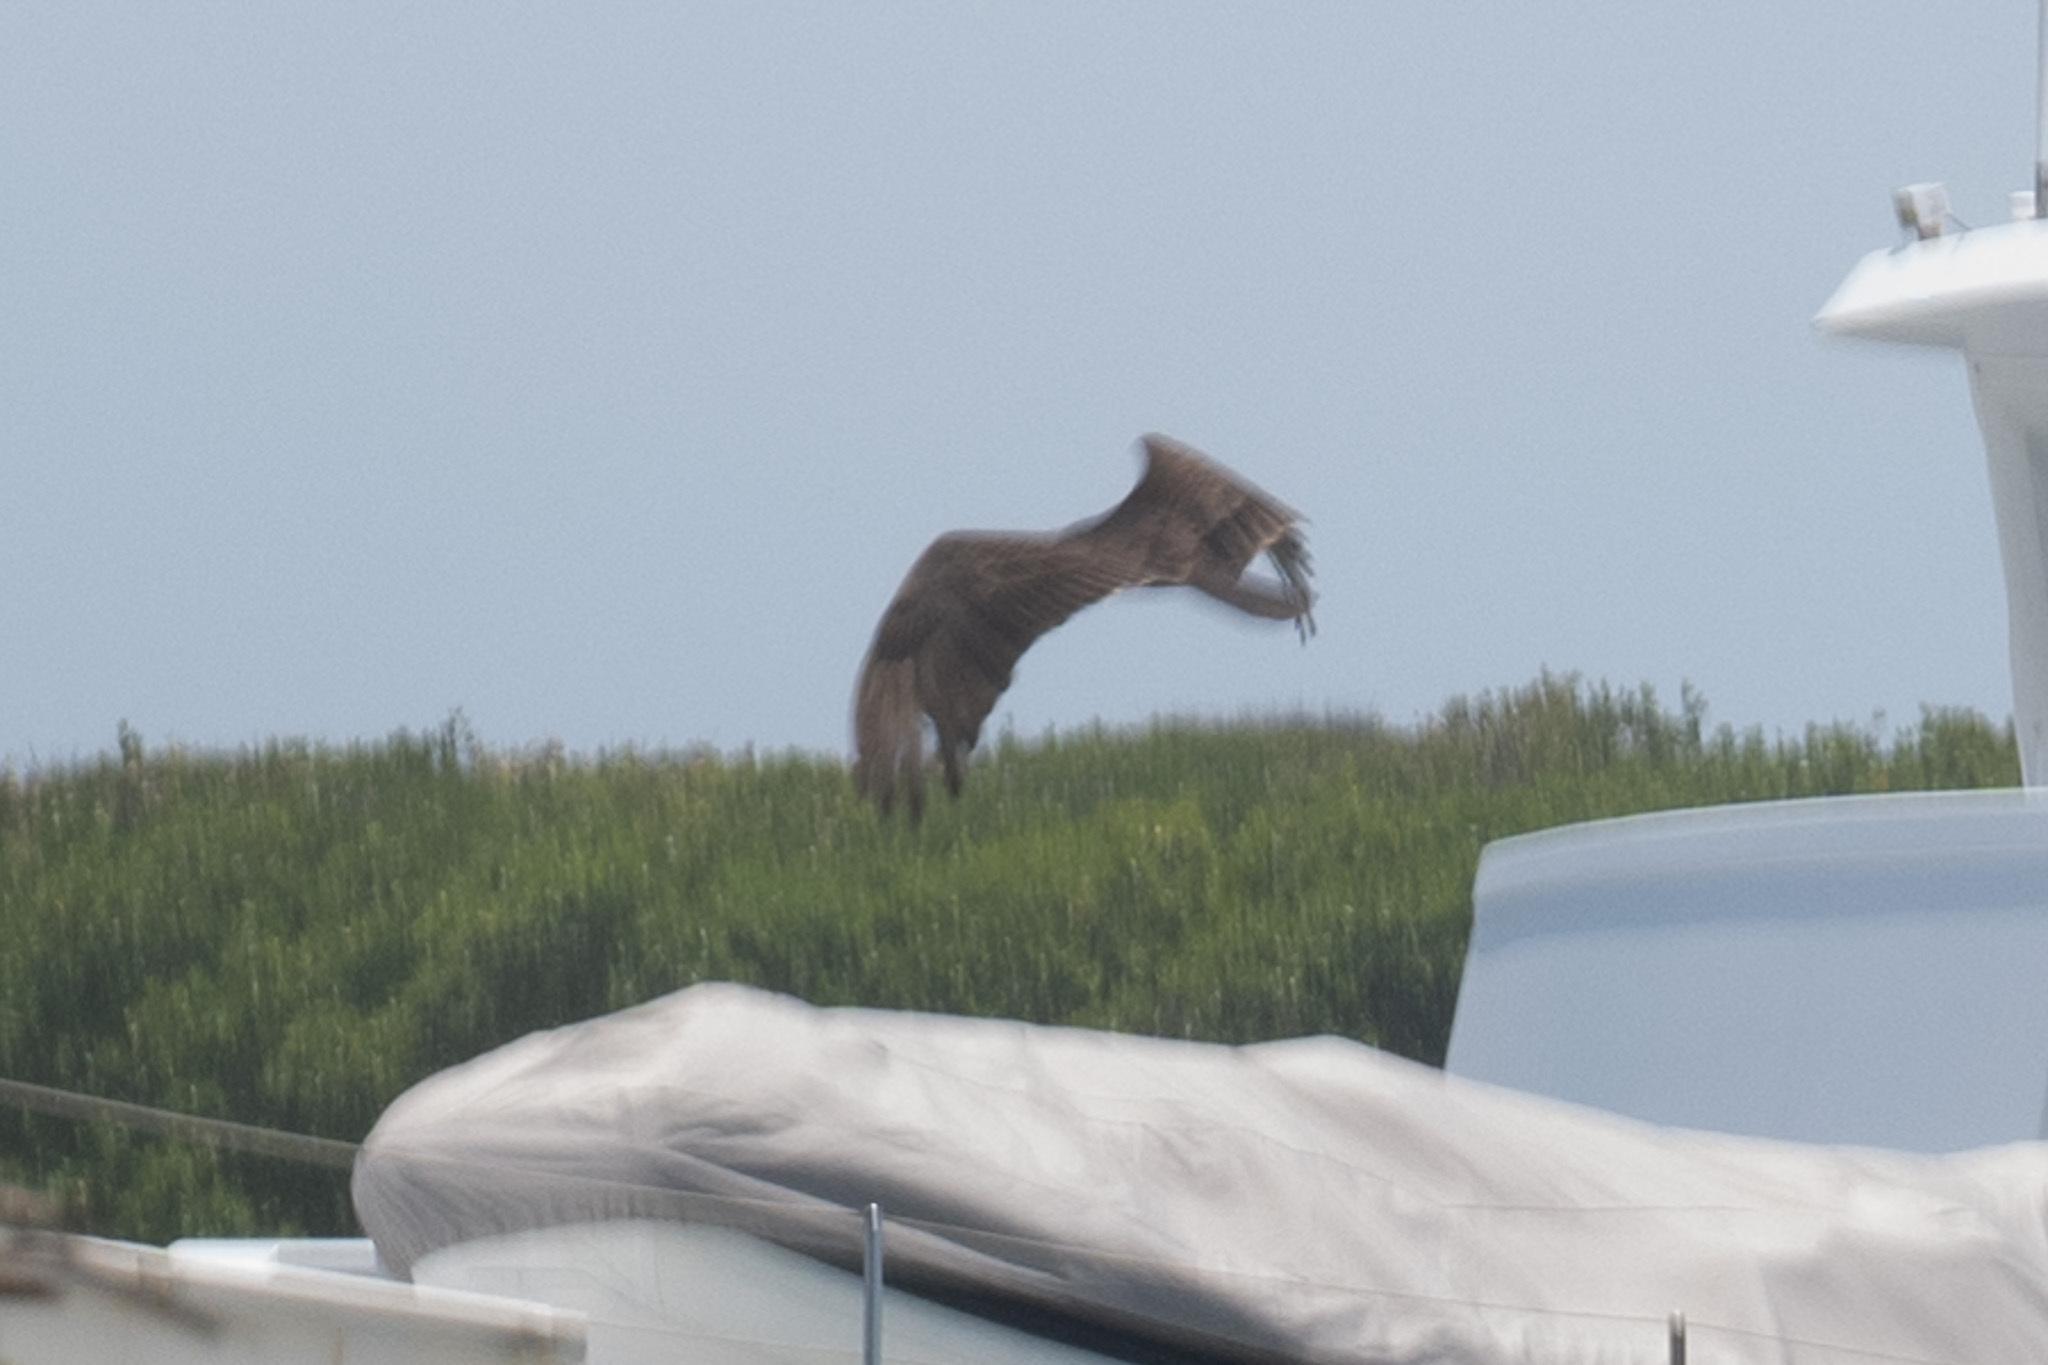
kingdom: Animalia
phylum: Chordata
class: Aves
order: Accipitriformes
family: Cathartidae
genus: Cathartes
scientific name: Cathartes aura
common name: Turkey vulture
